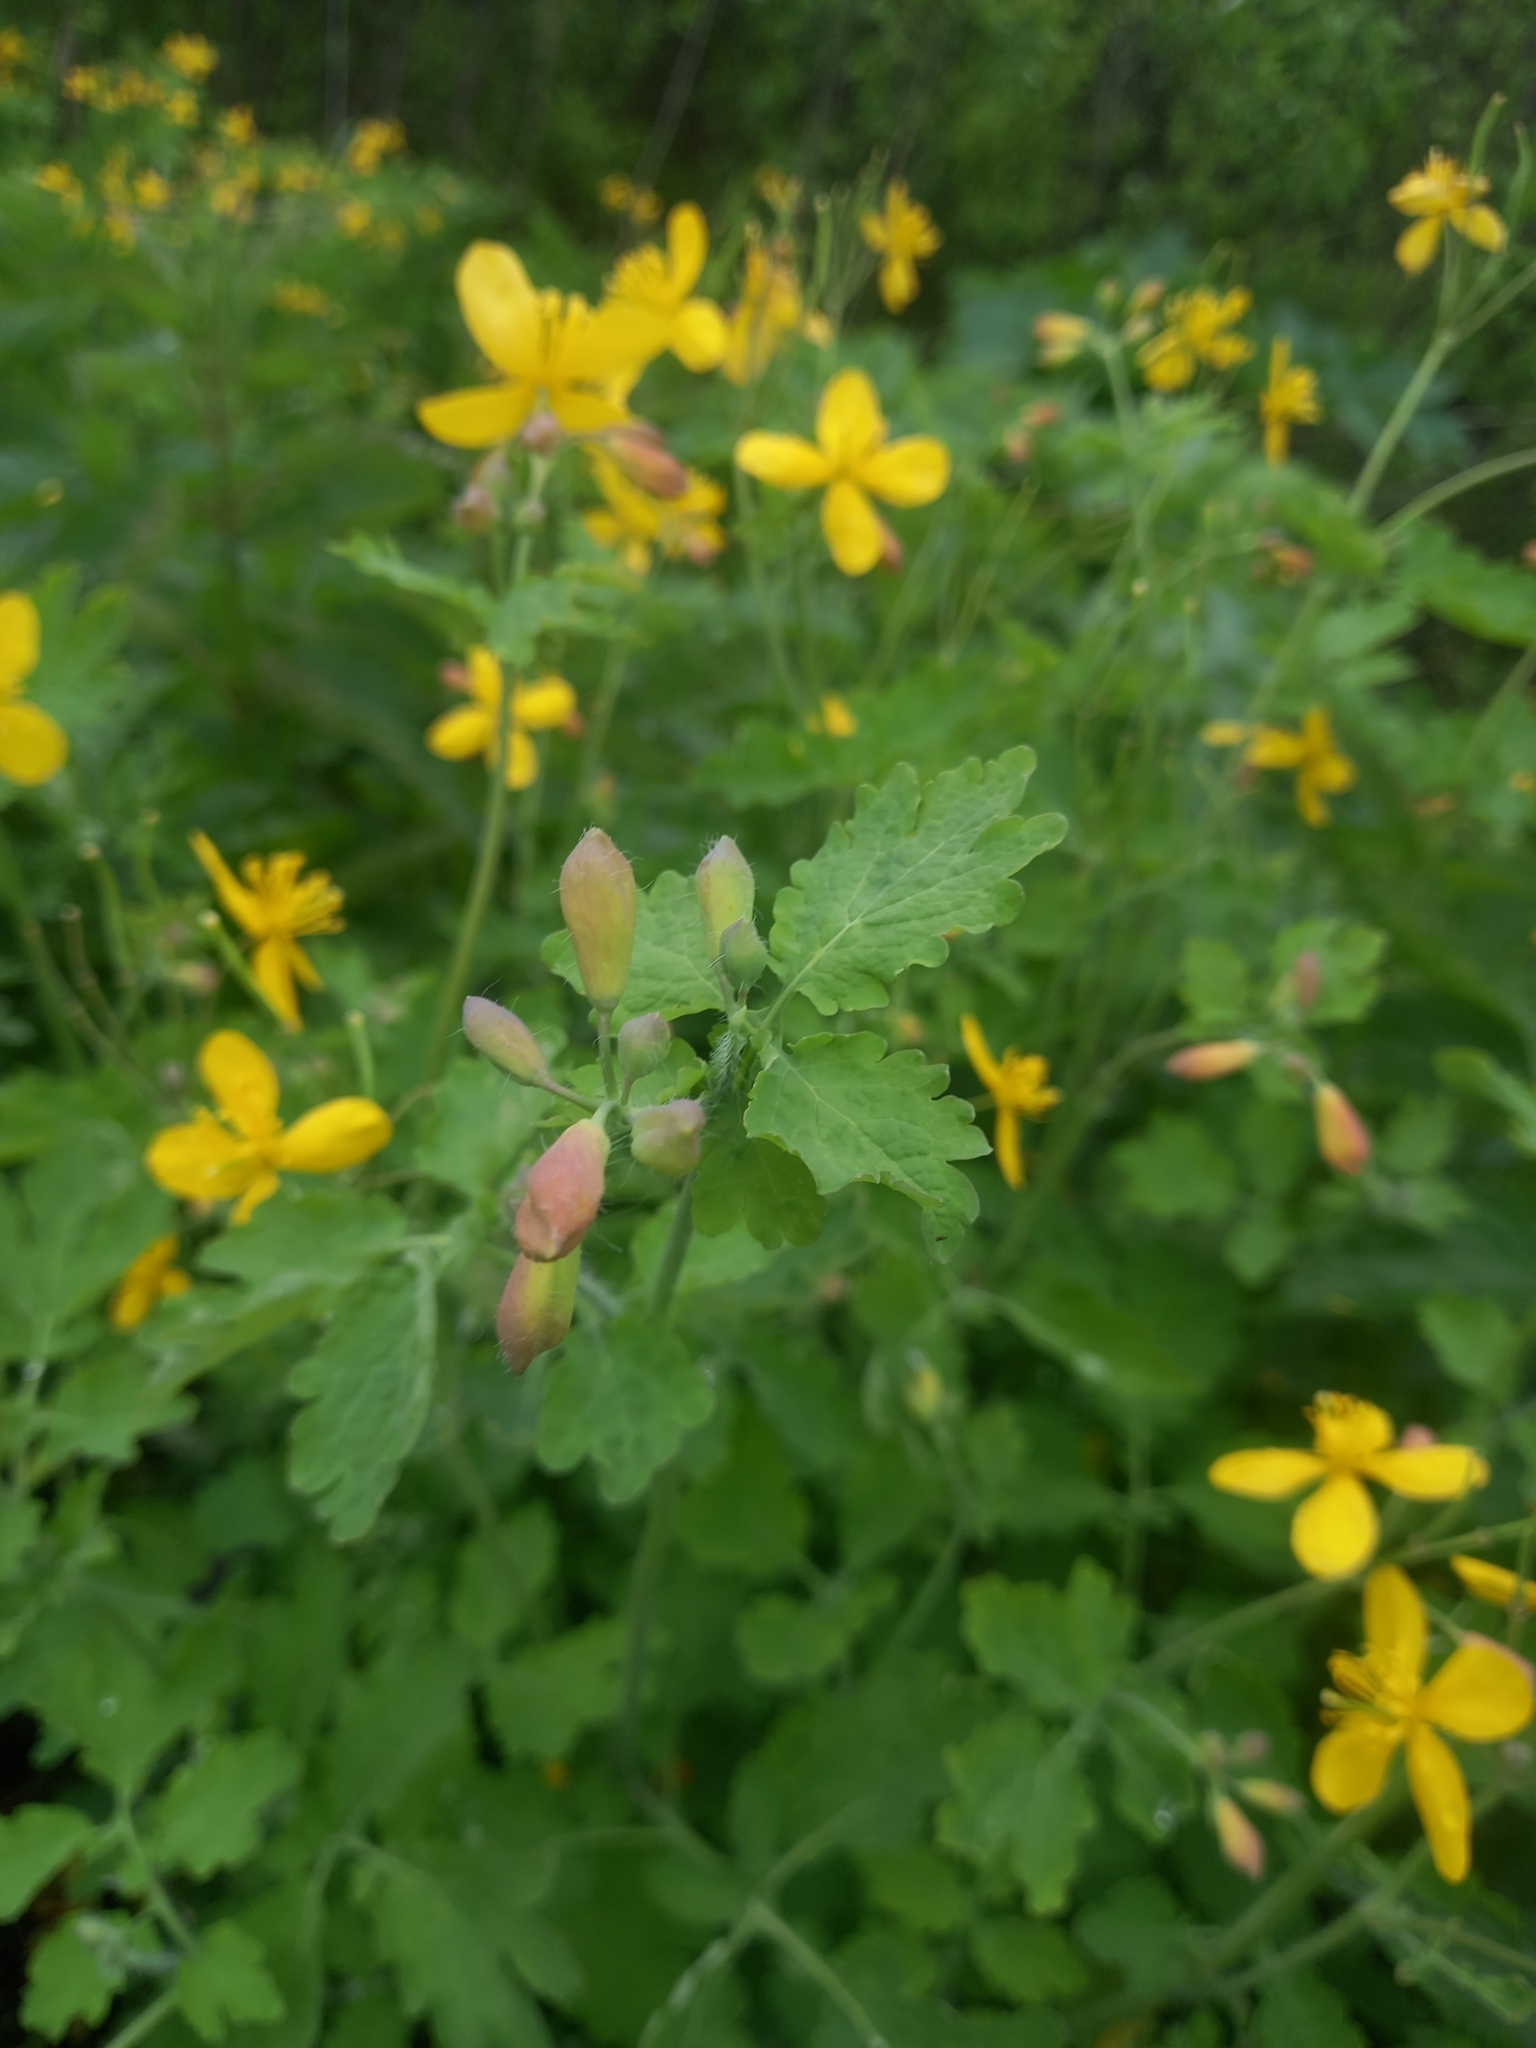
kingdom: Plantae
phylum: Tracheophyta
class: Magnoliopsida
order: Ranunculales
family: Papaveraceae
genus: Chelidonium
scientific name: Chelidonium majus
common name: Greater celandine
